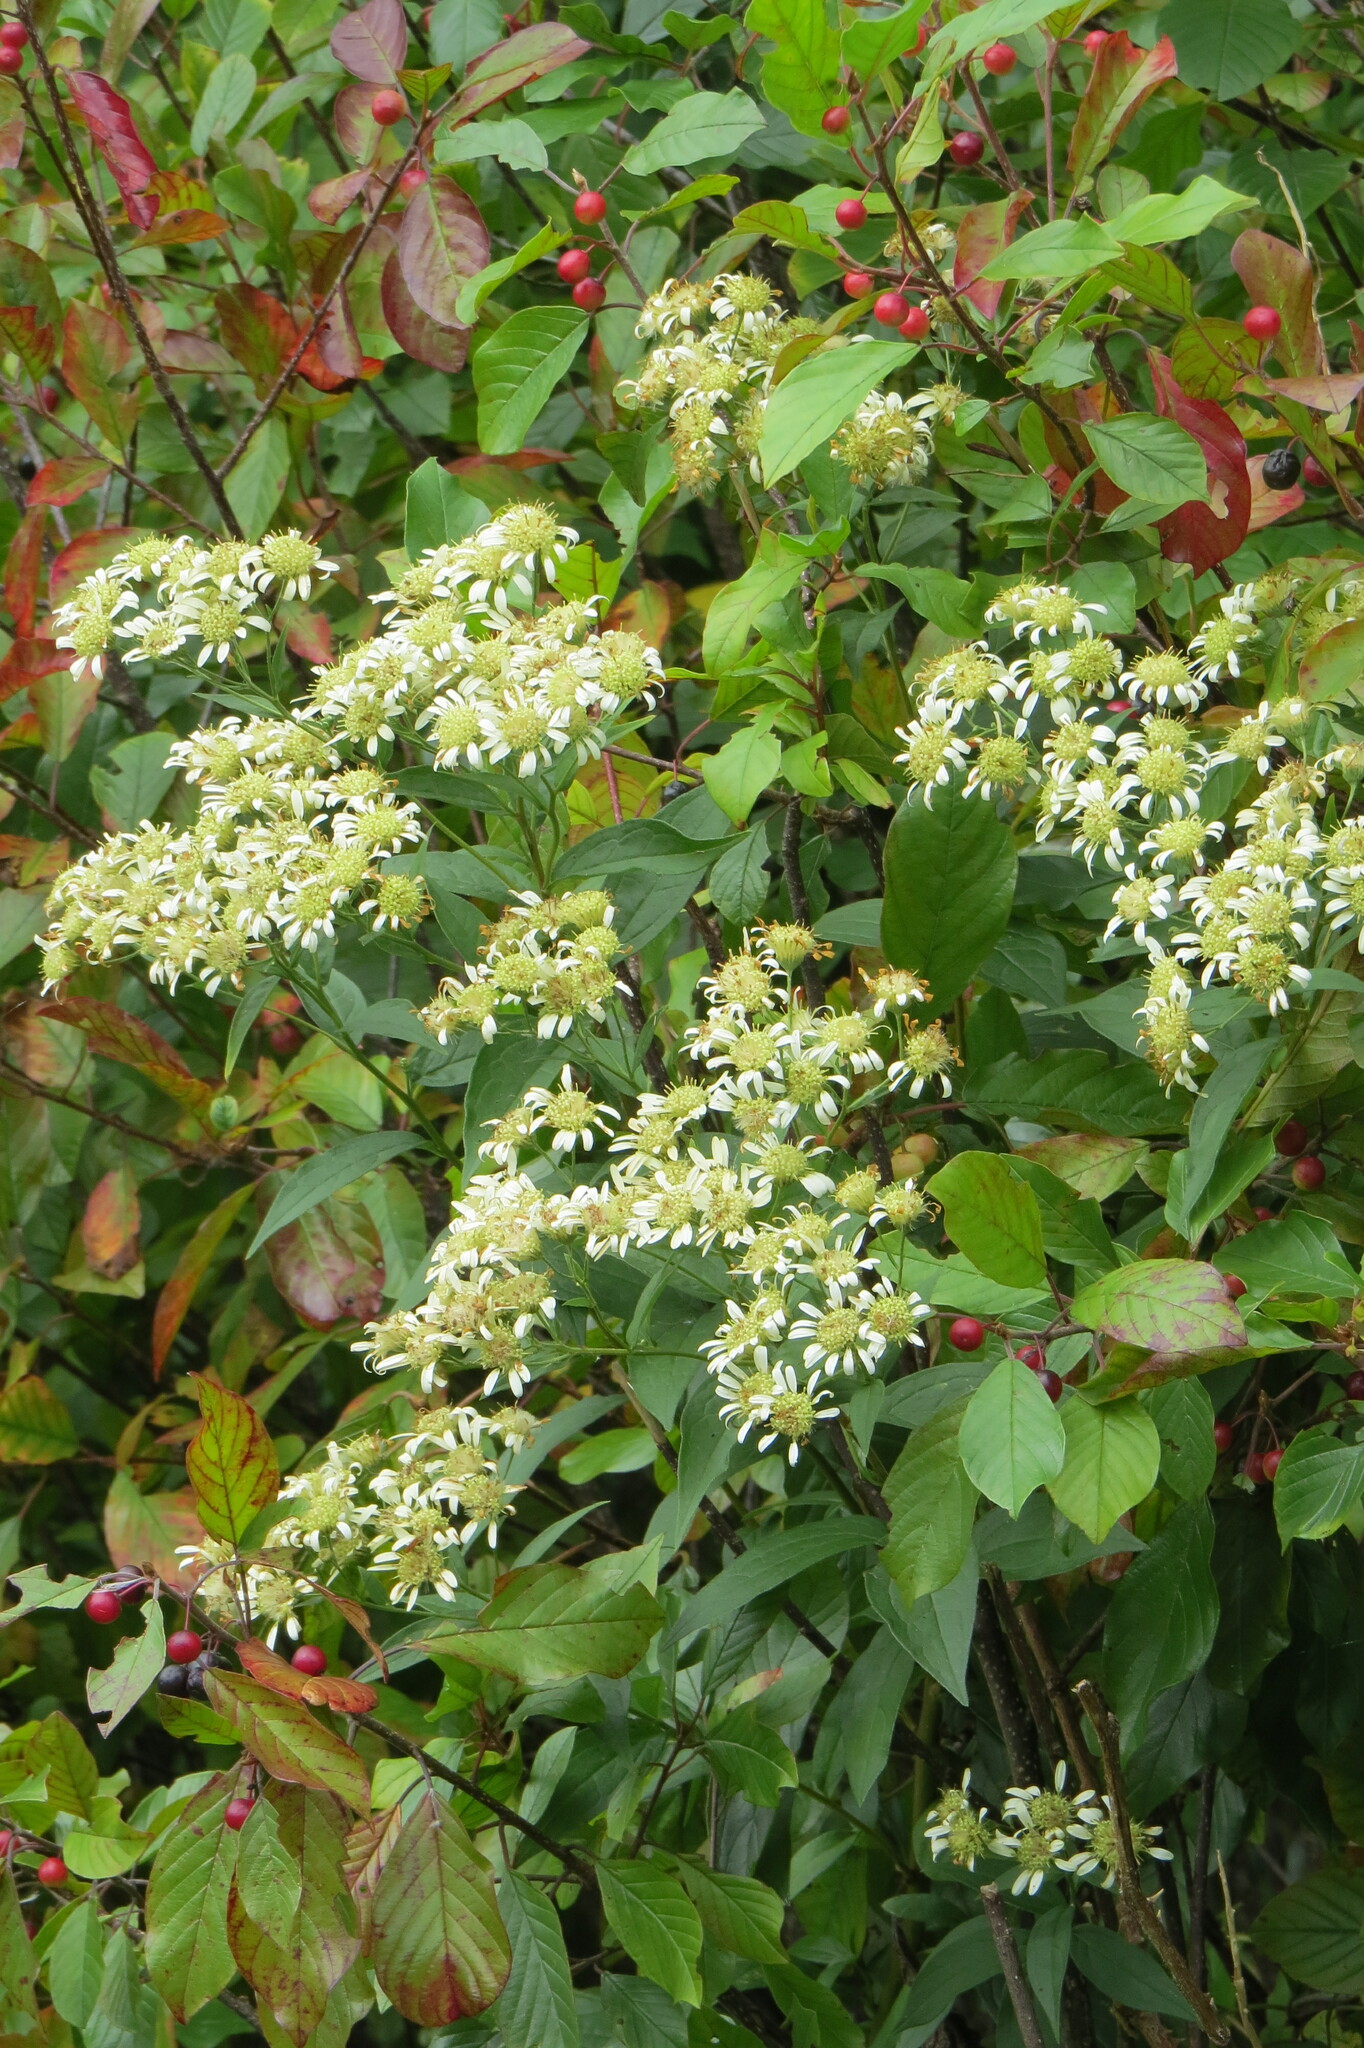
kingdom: Plantae
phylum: Tracheophyta
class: Magnoliopsida
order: Asterales
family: Asteraceae
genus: Doellingeria
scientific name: Doellingeria umbellata
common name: Flat-top white aster
